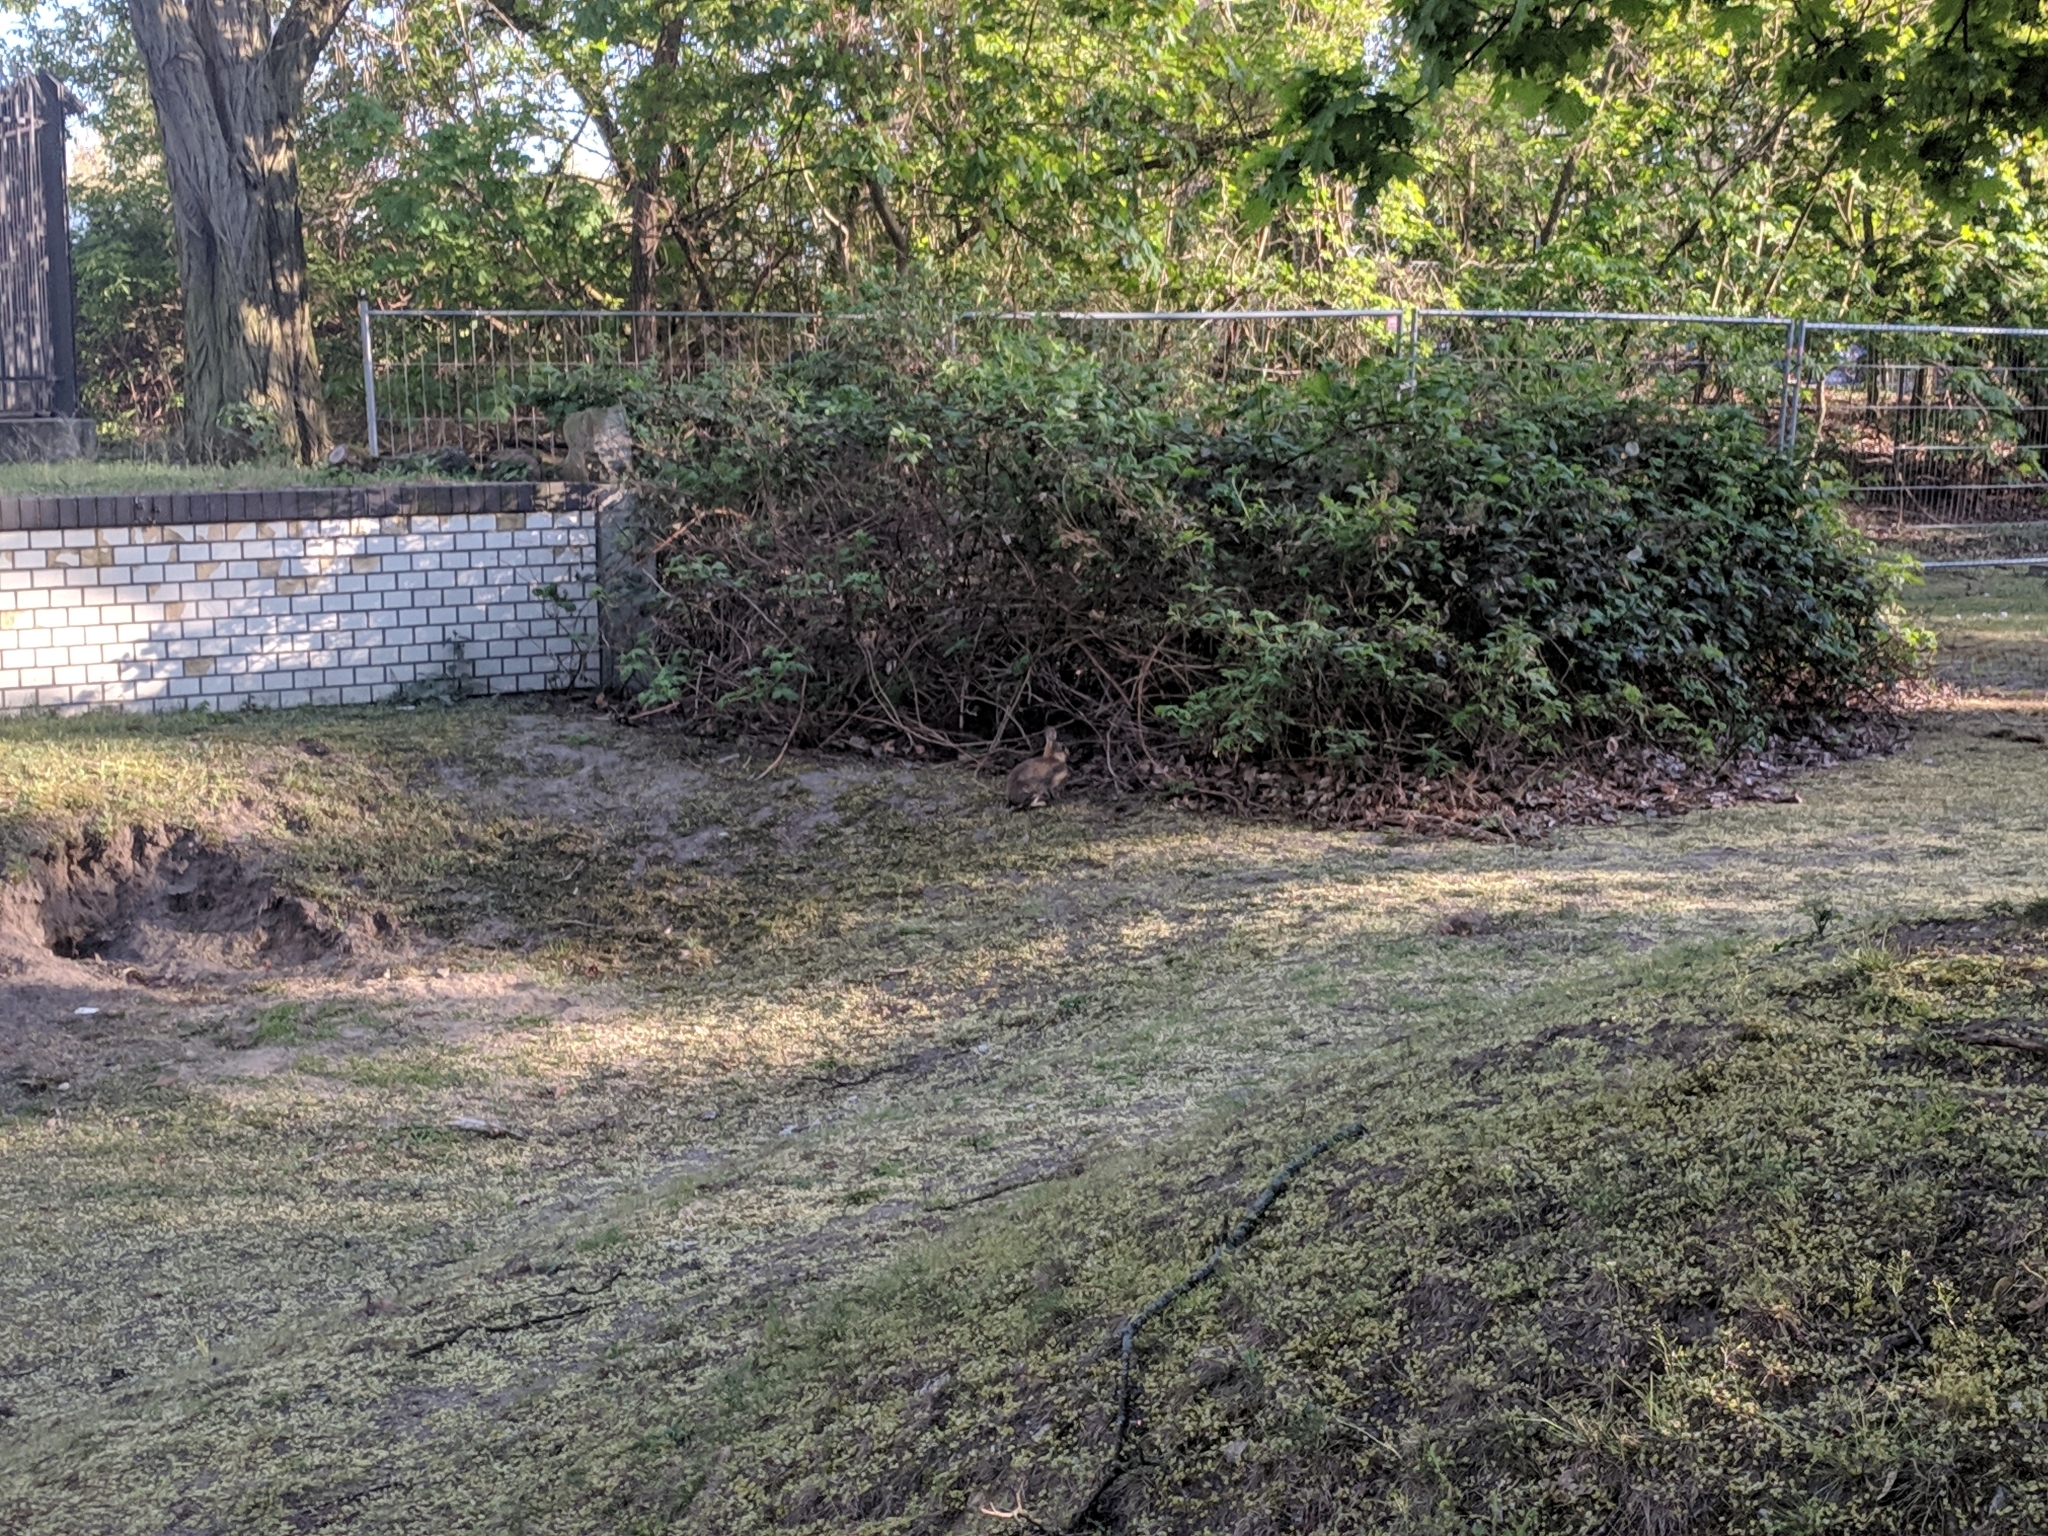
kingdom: Animalia
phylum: Chordata
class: Mammalia
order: Lagomorpha
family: Leporidae
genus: Oryctolagus
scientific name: Oryctolagus cuniculus
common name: European rabbit
